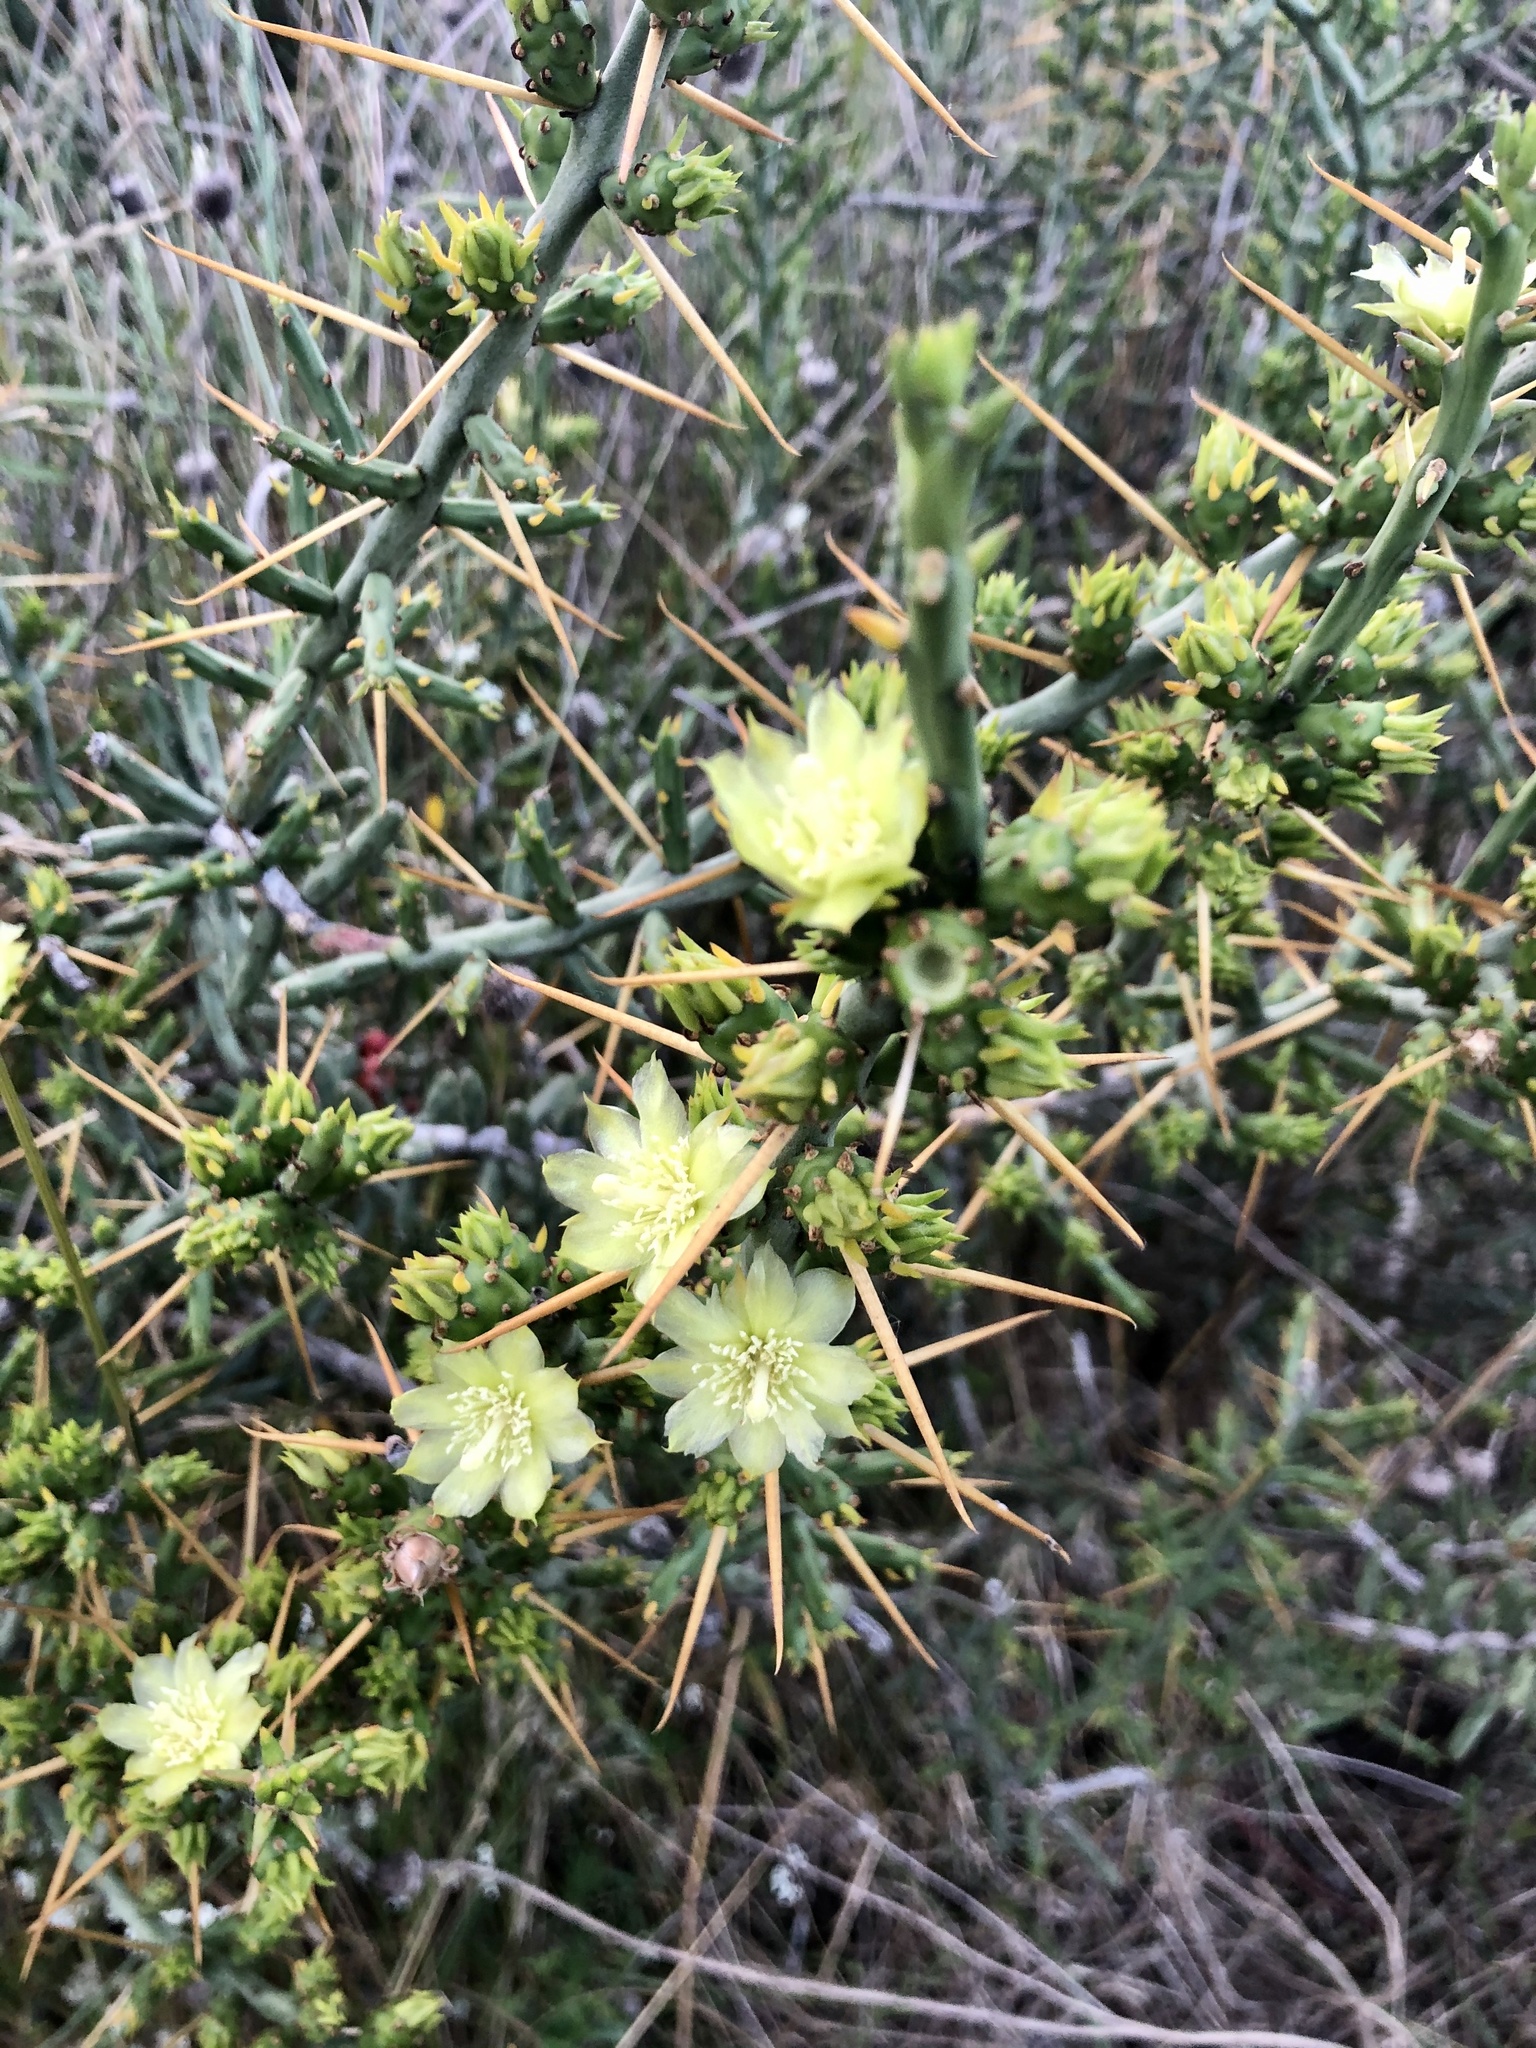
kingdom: Plantae
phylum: Tracheophyta
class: Magnoliopsida
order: Caryophyllales
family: Cactaceae
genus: Cylindropuntia
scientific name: Cylindropuntia leptocaulis
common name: Christmas cactus
